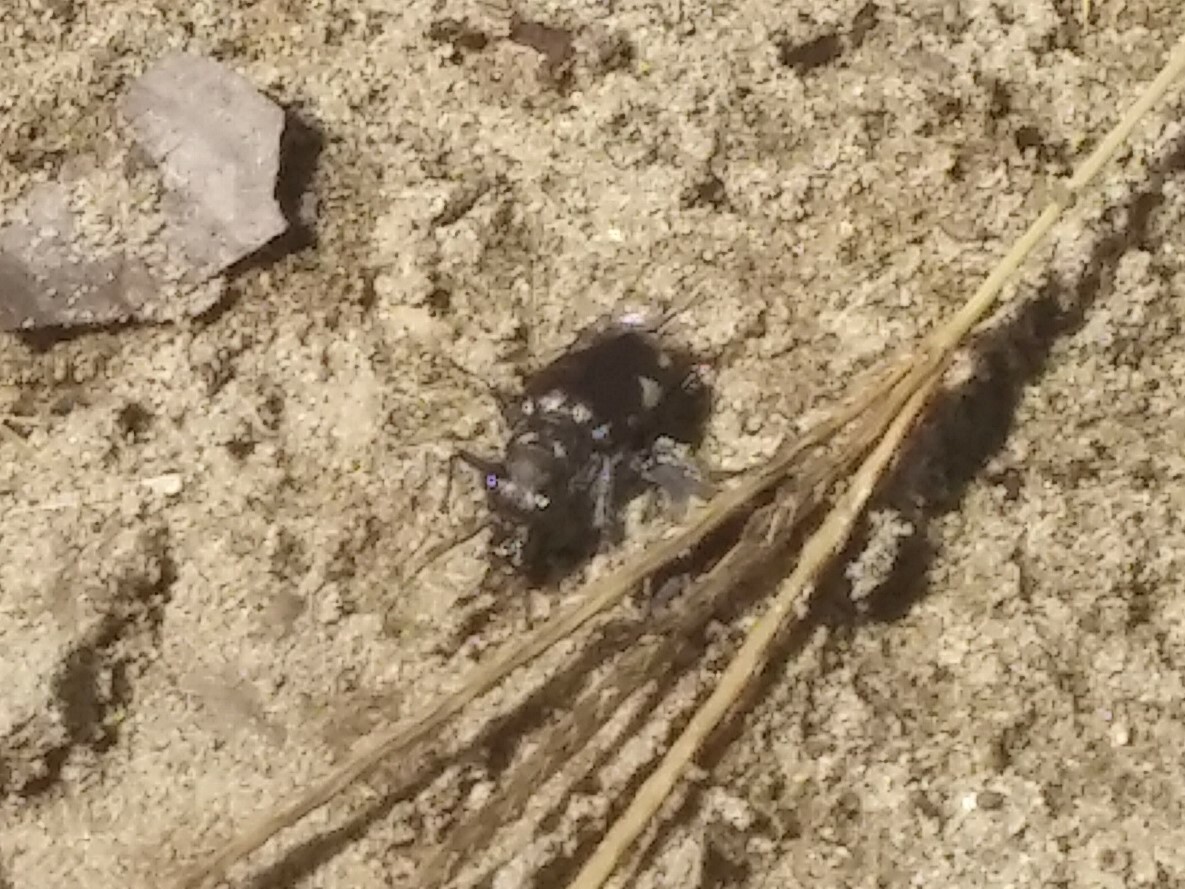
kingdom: Animalia
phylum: Arthropoda
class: Insecta
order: Coleoptera
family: Carabidae
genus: Cicindela
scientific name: Cicindela scutellaris
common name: Festive tiger beetle
